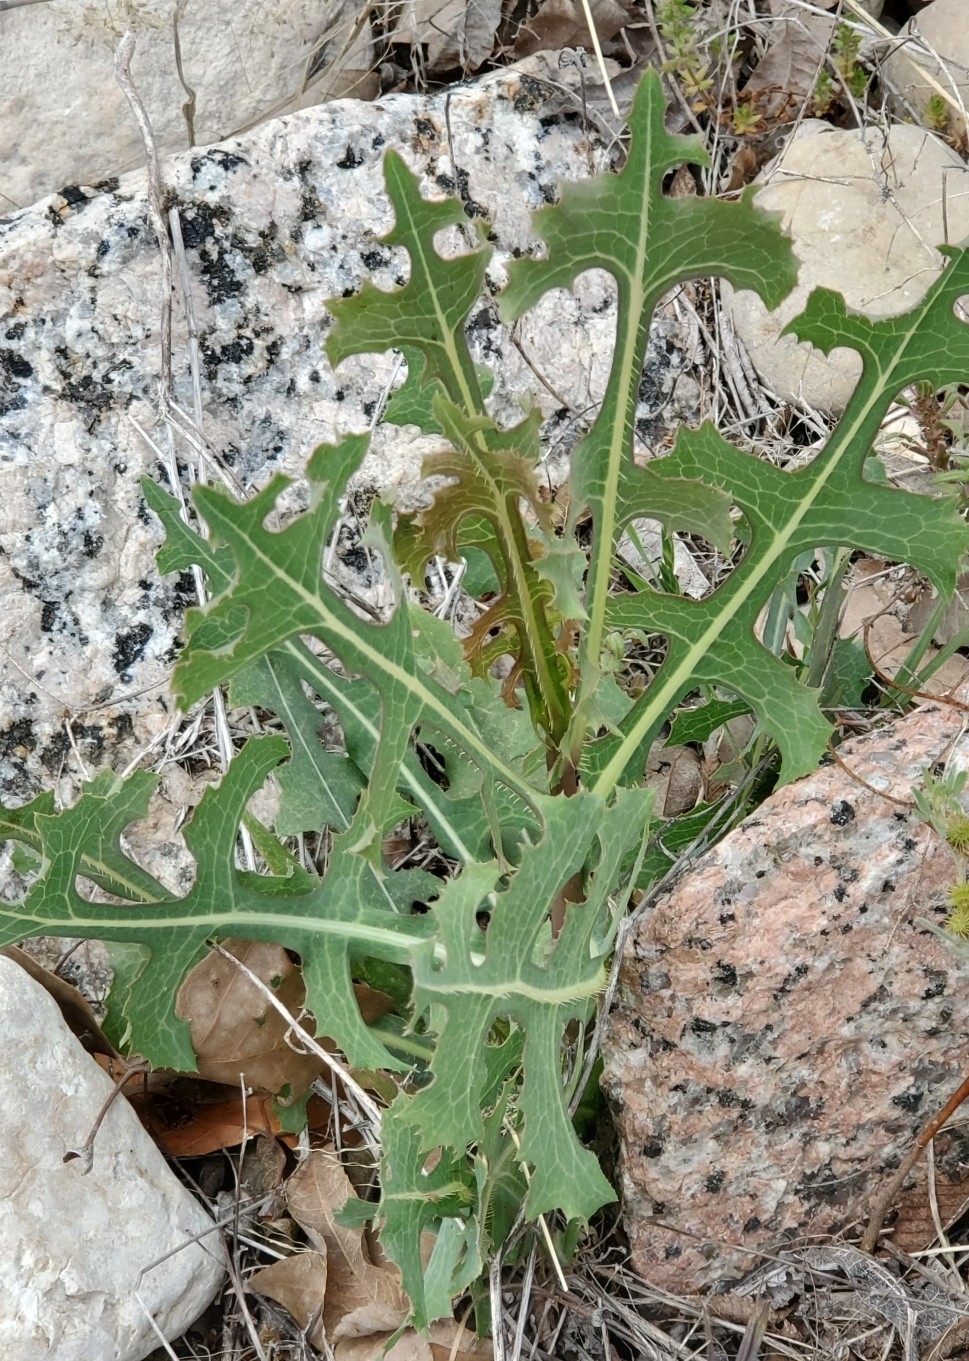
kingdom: Plantae
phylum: Tracheophyta
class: Magnoliopsida
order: Asterales
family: Asteraceae
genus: Lactuca
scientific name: Lactuca serriola
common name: Prickly lettuce
